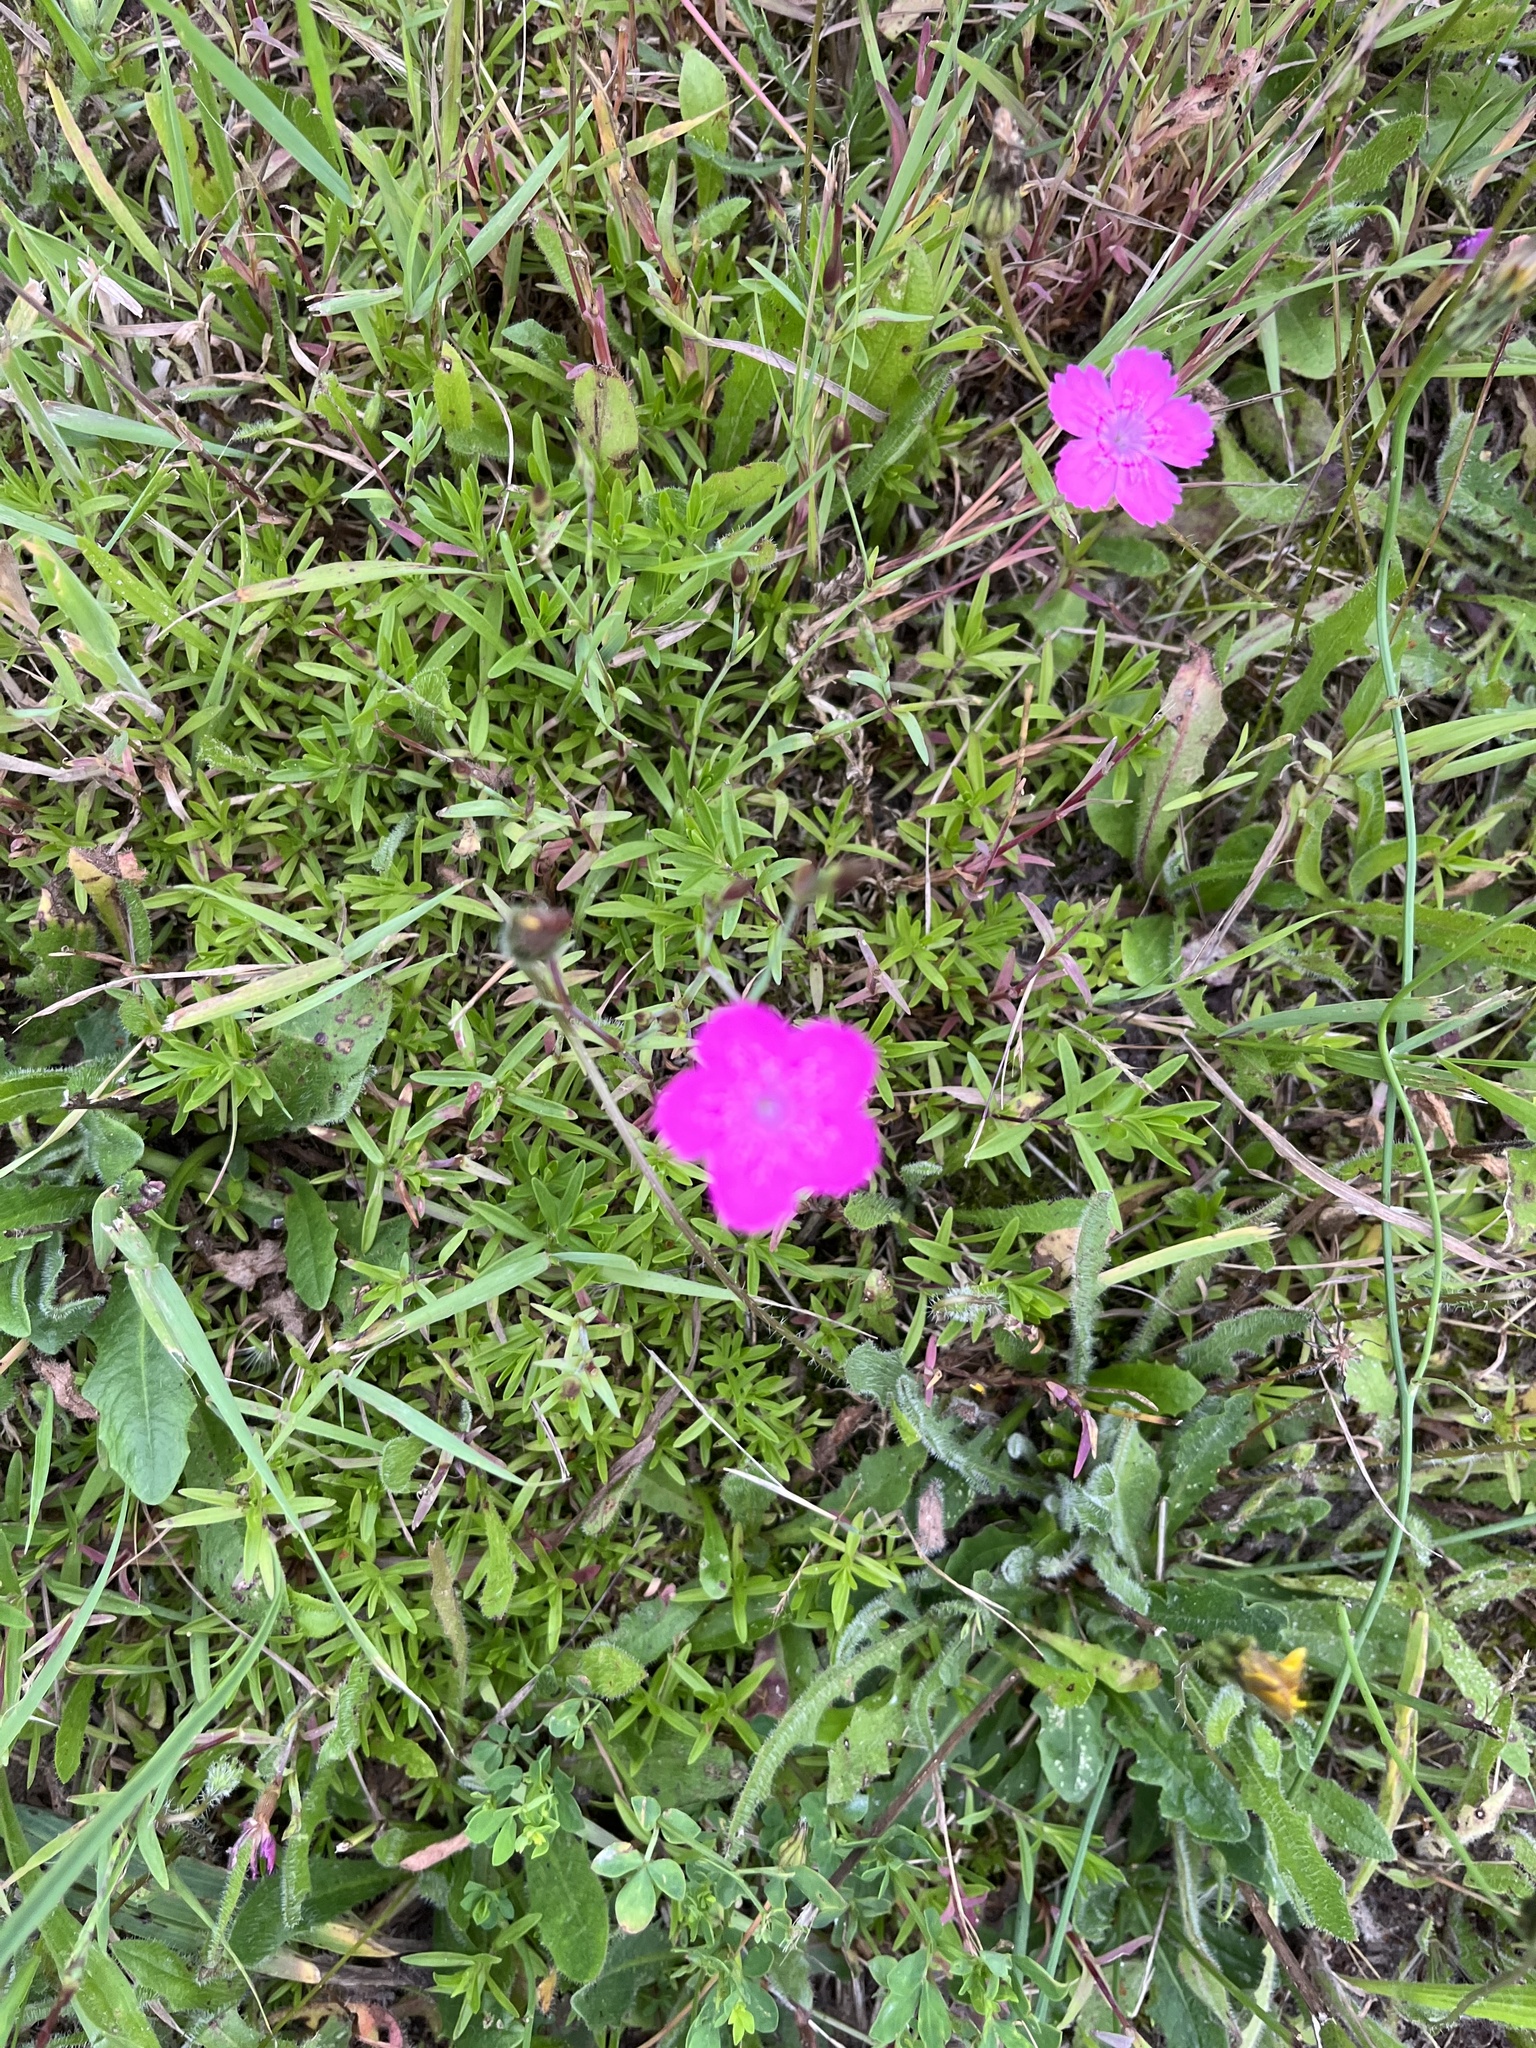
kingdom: Plantae
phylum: Tracheophyta
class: Magnoliopsida
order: Caryophyllales
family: Caryophyllaceae
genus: Dianthus
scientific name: Dianthus deltoides
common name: Maiden pink
